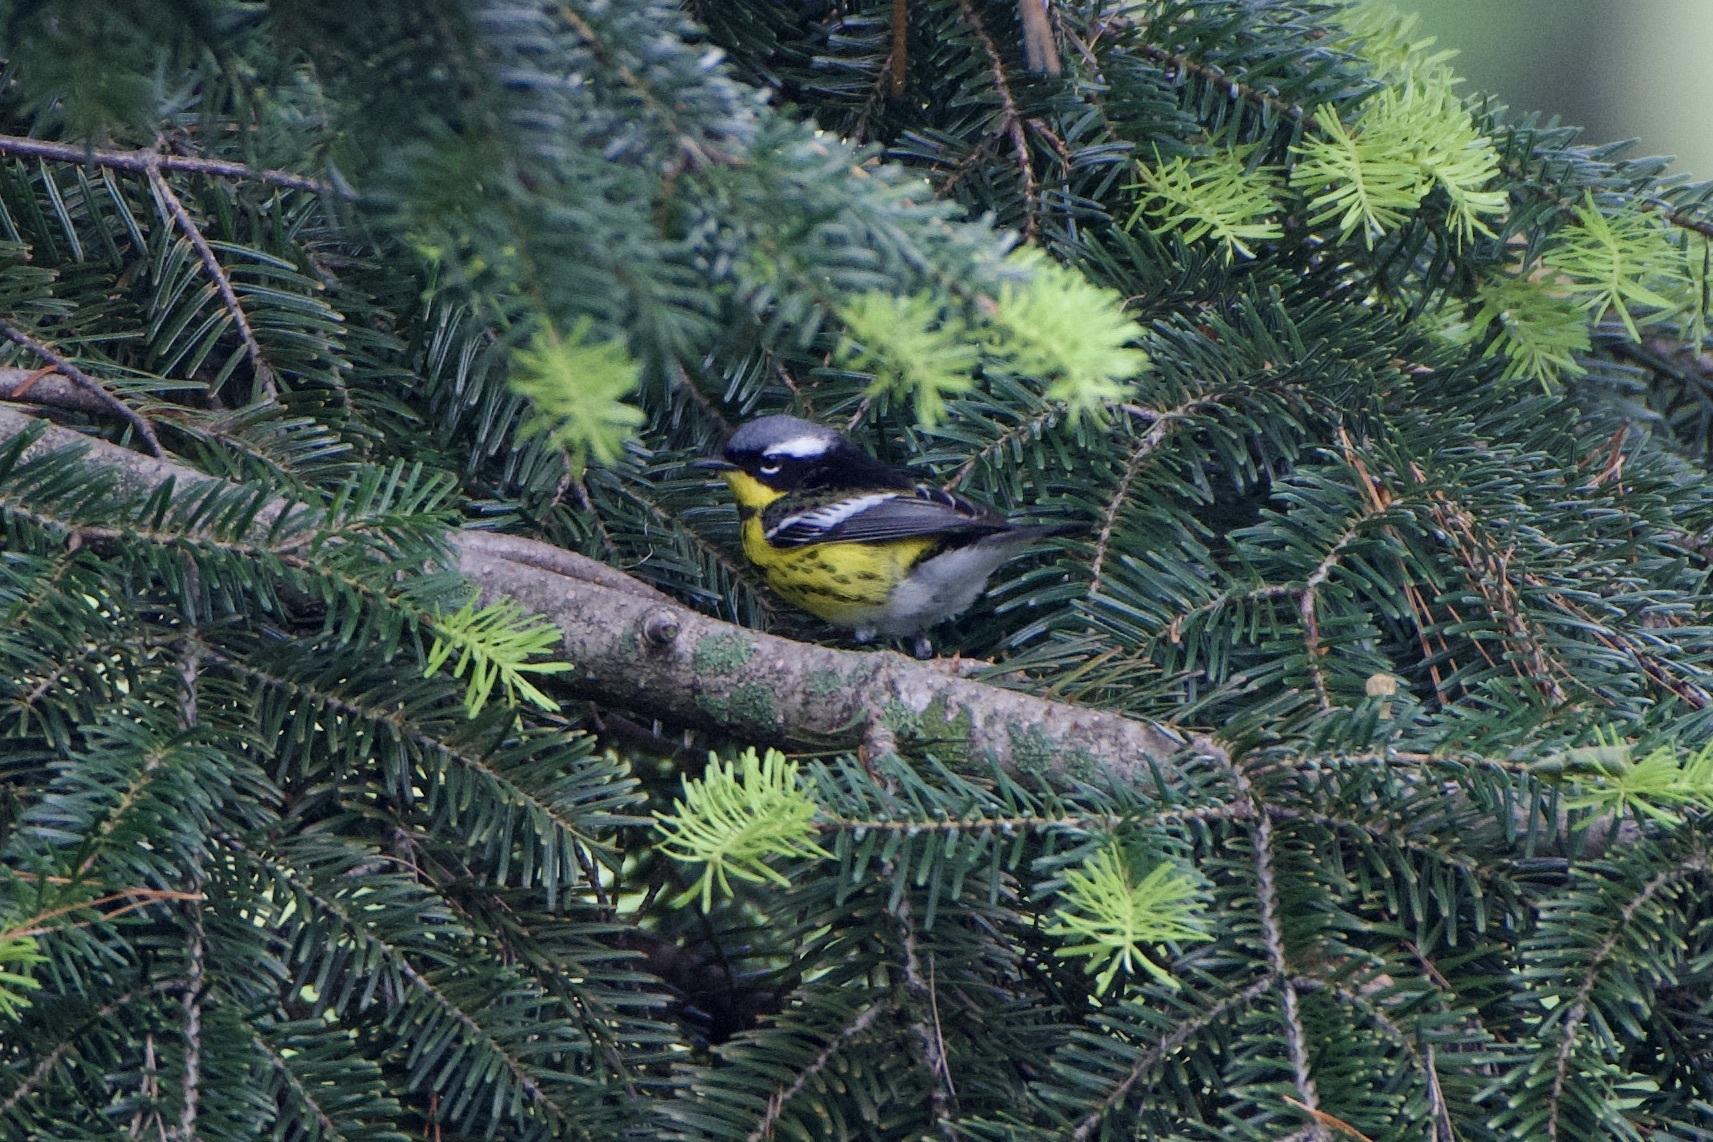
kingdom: Animalia
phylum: Chordata
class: Aves
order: Passeriformes
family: Parulidae
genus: Setophaga
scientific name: Setophaga magnolia
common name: Magnolia warbler
